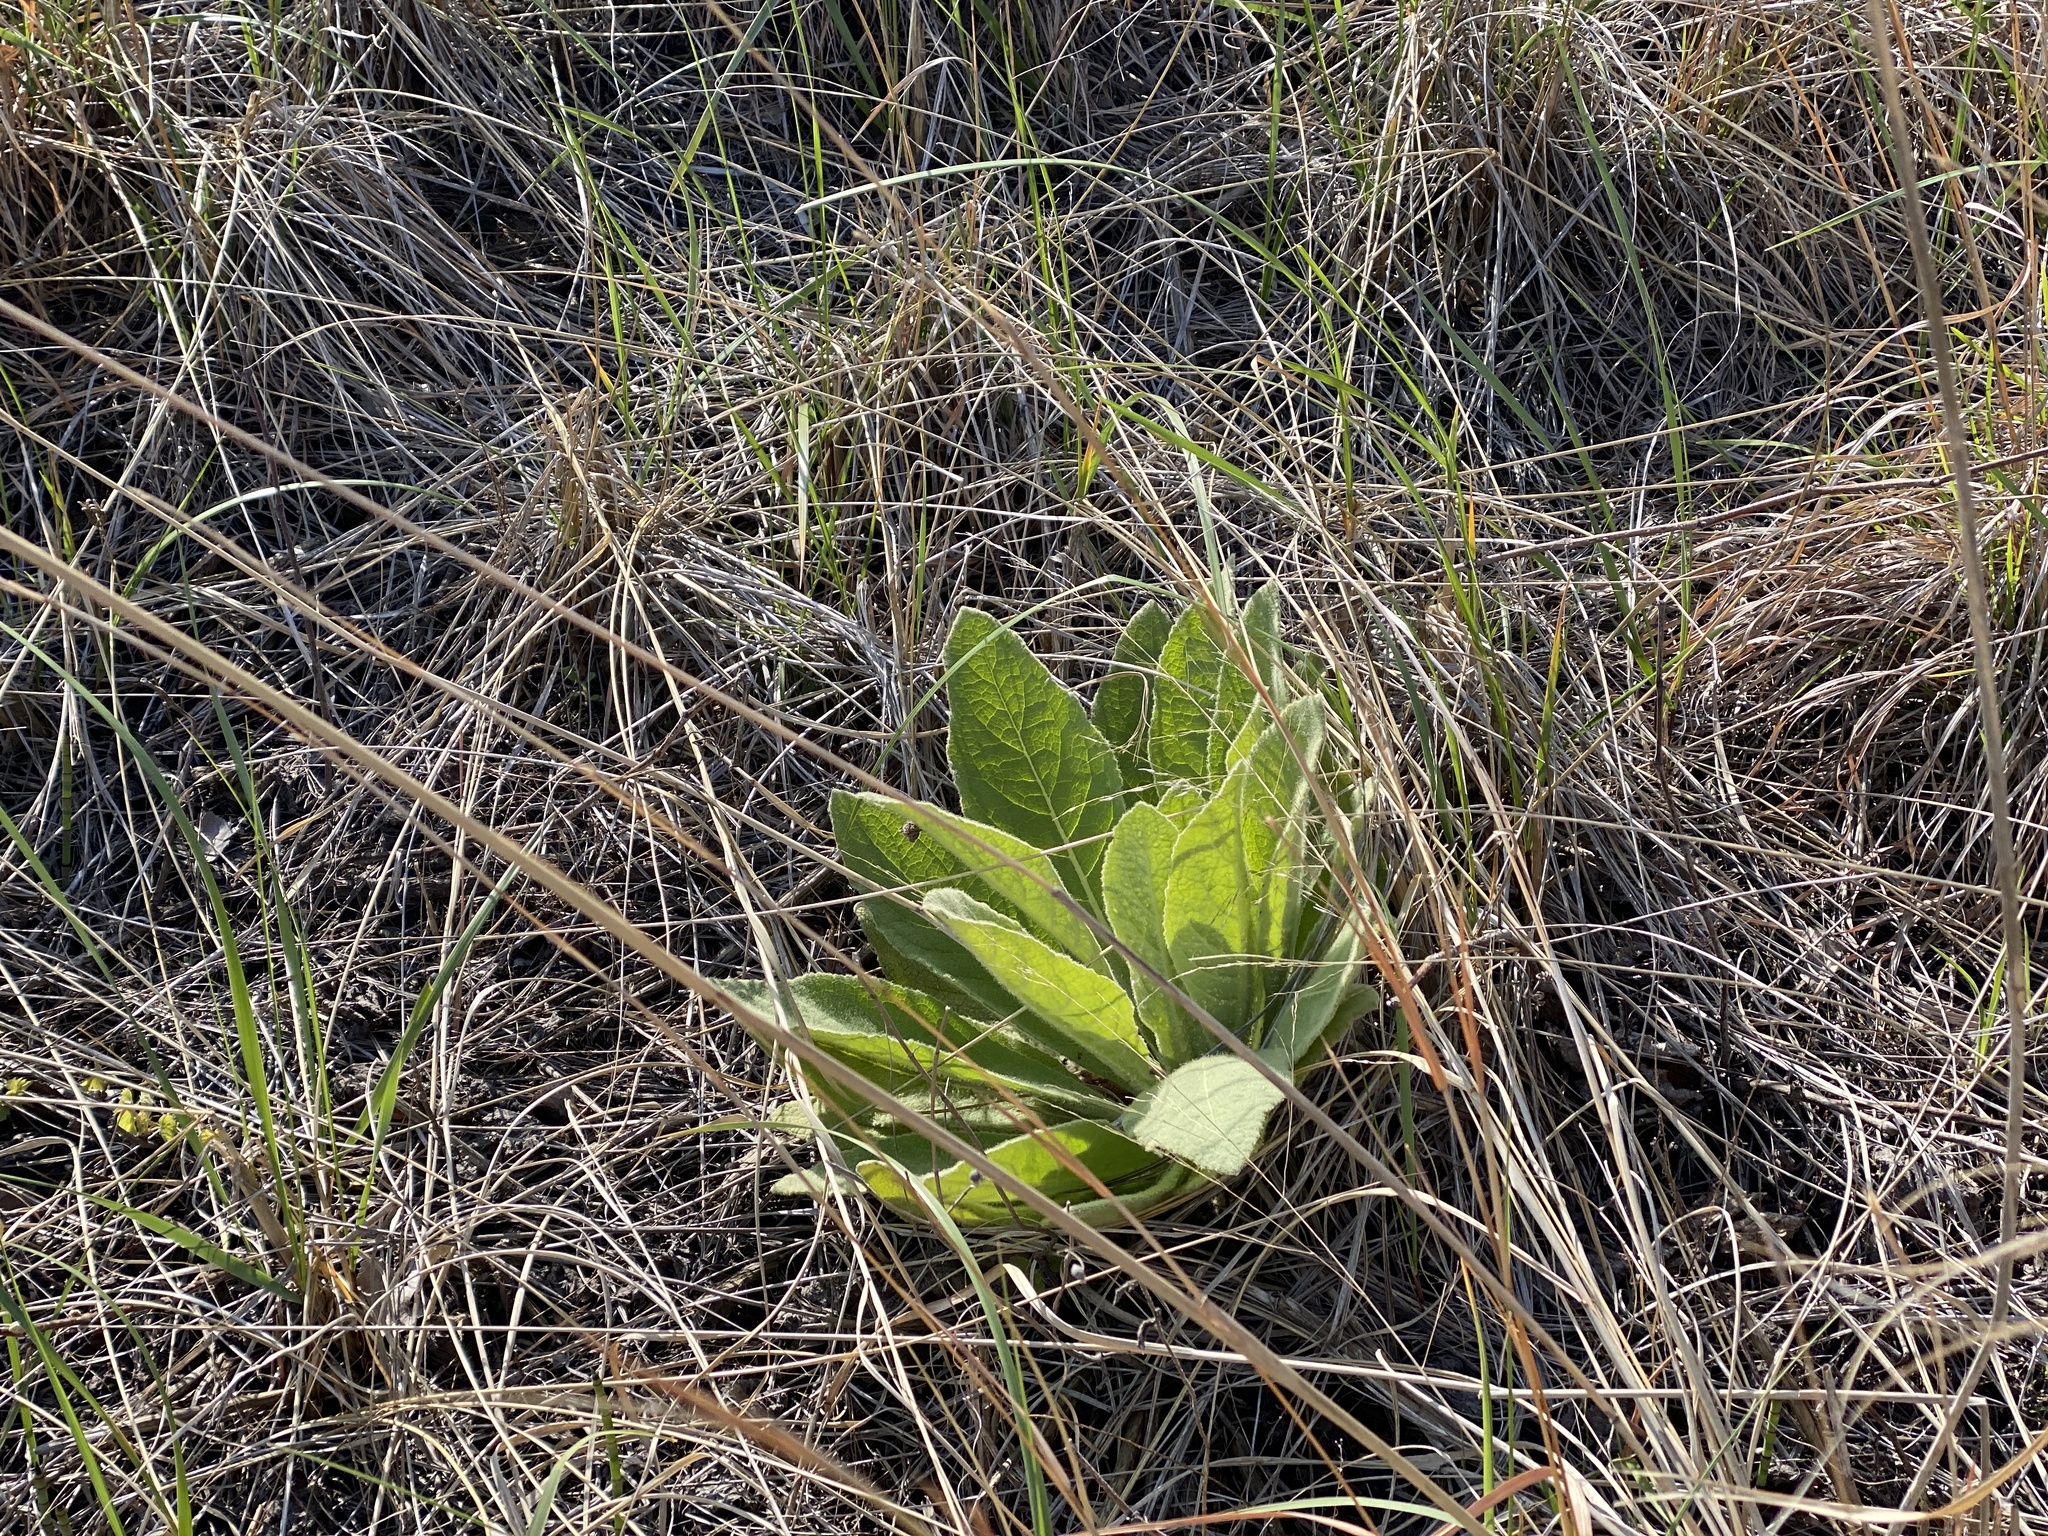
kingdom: Plantae
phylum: Tracheophyta
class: Magnoliopsida
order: Lamiales
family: Scrophulariaceae
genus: Verbascum
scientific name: Verbascum thapsus
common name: Common mullein
